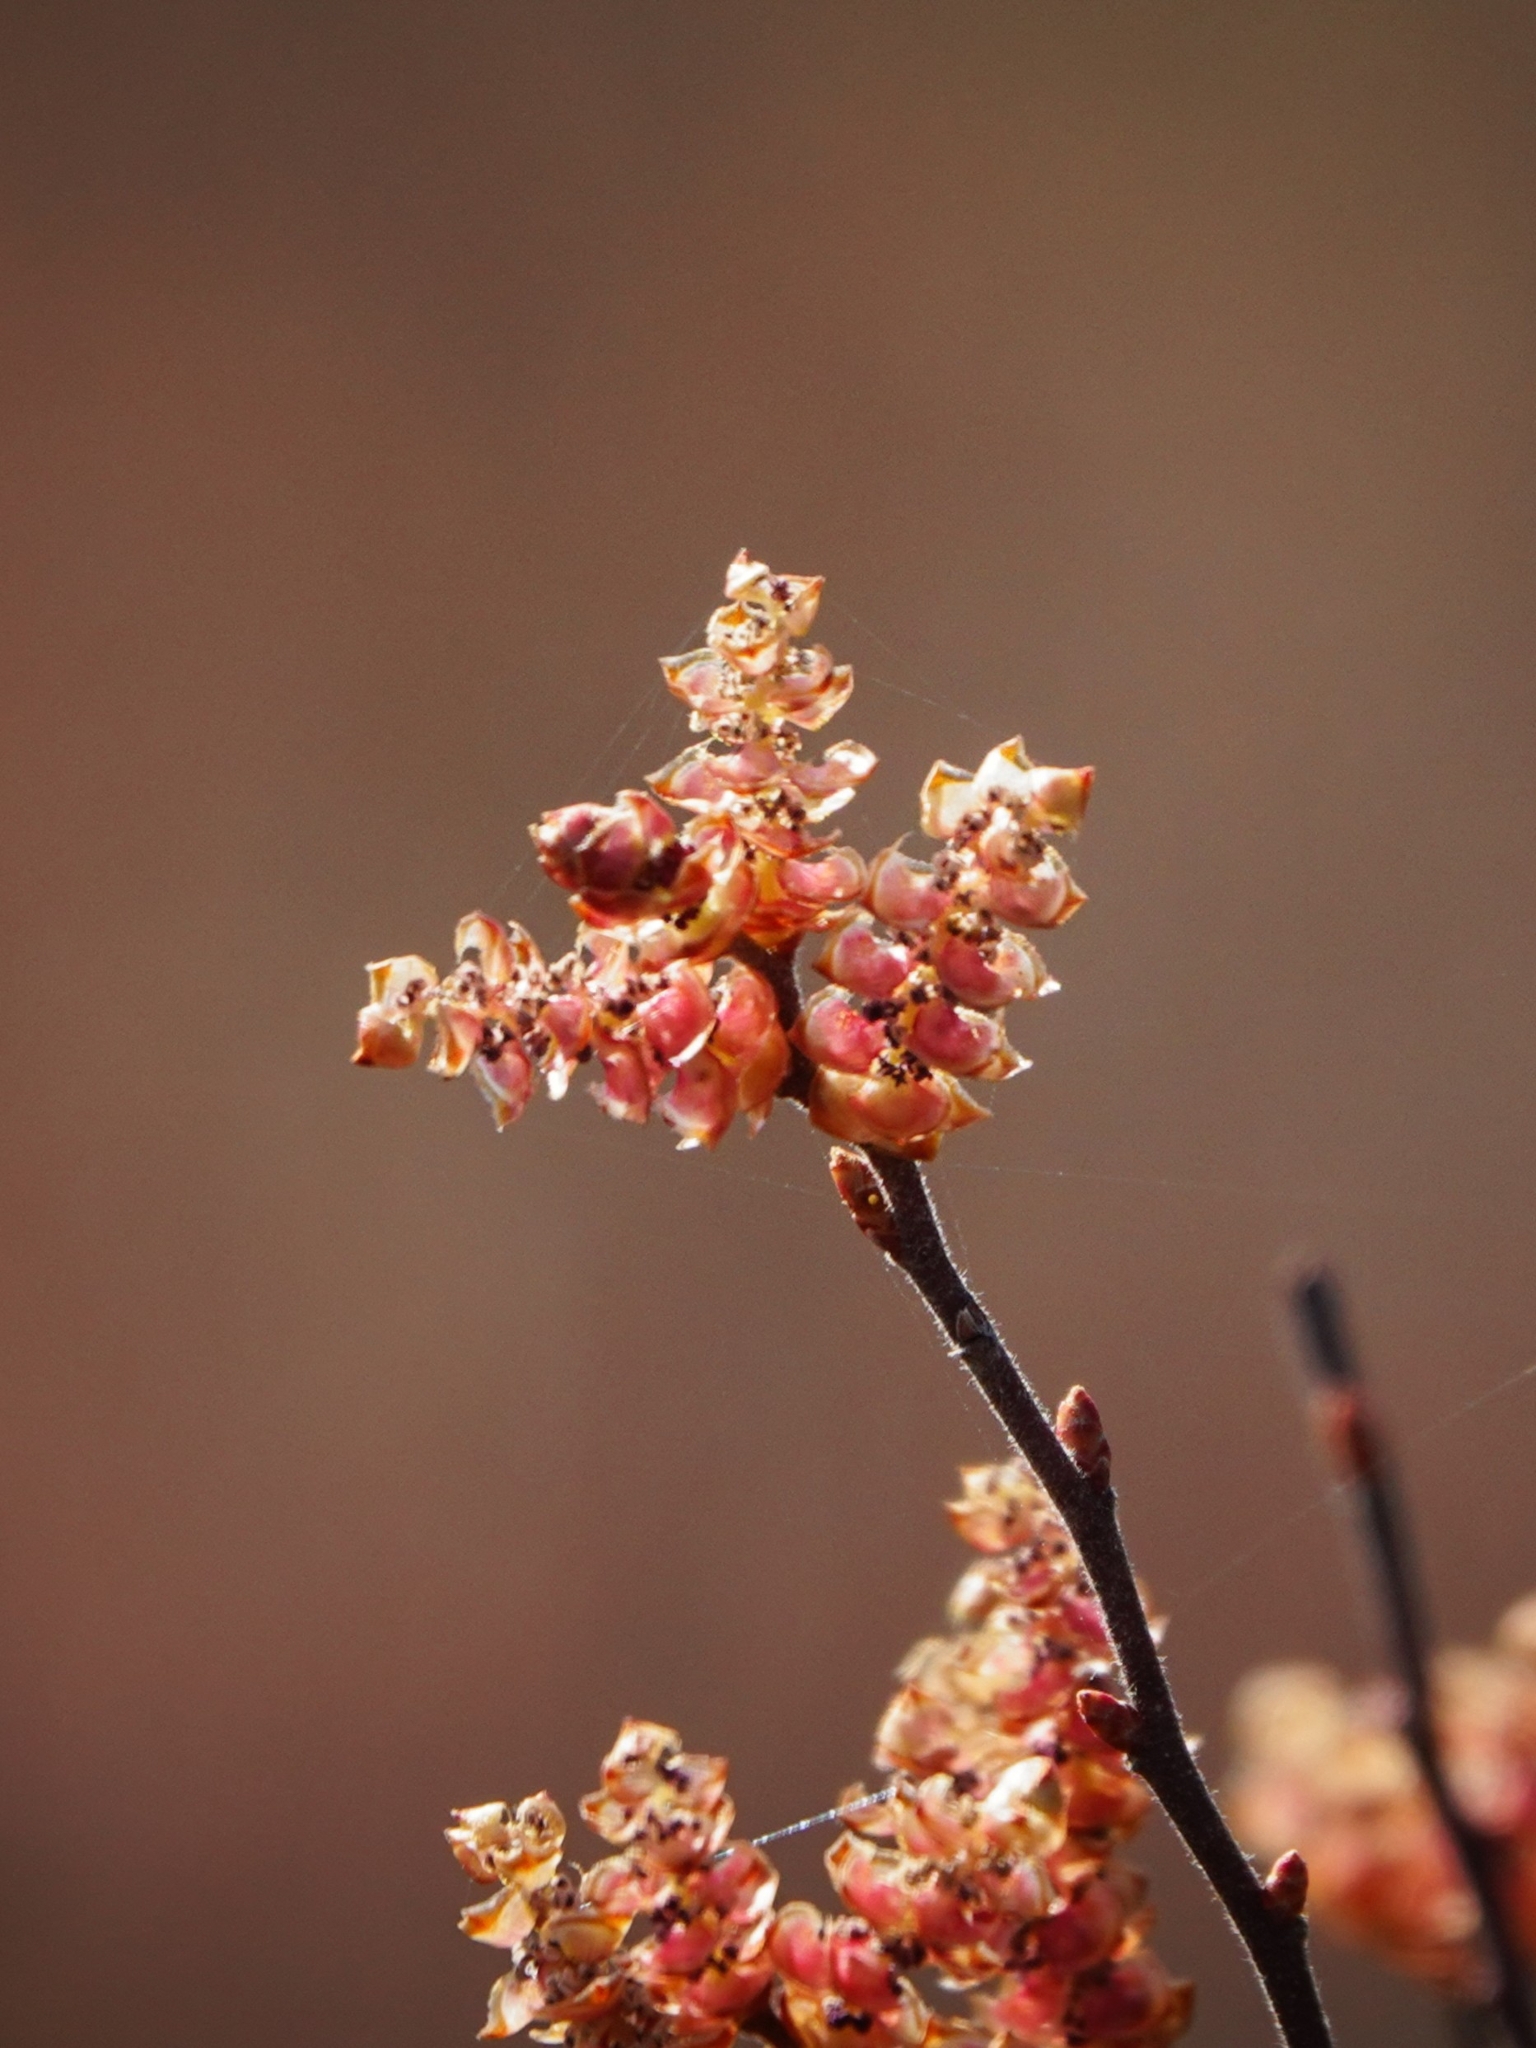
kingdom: Plantae
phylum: Tracheophyta
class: Magnoliopsida
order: Fagales
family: Myricaceae
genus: Myrica
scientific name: Myrica gale
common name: Sweet gale
